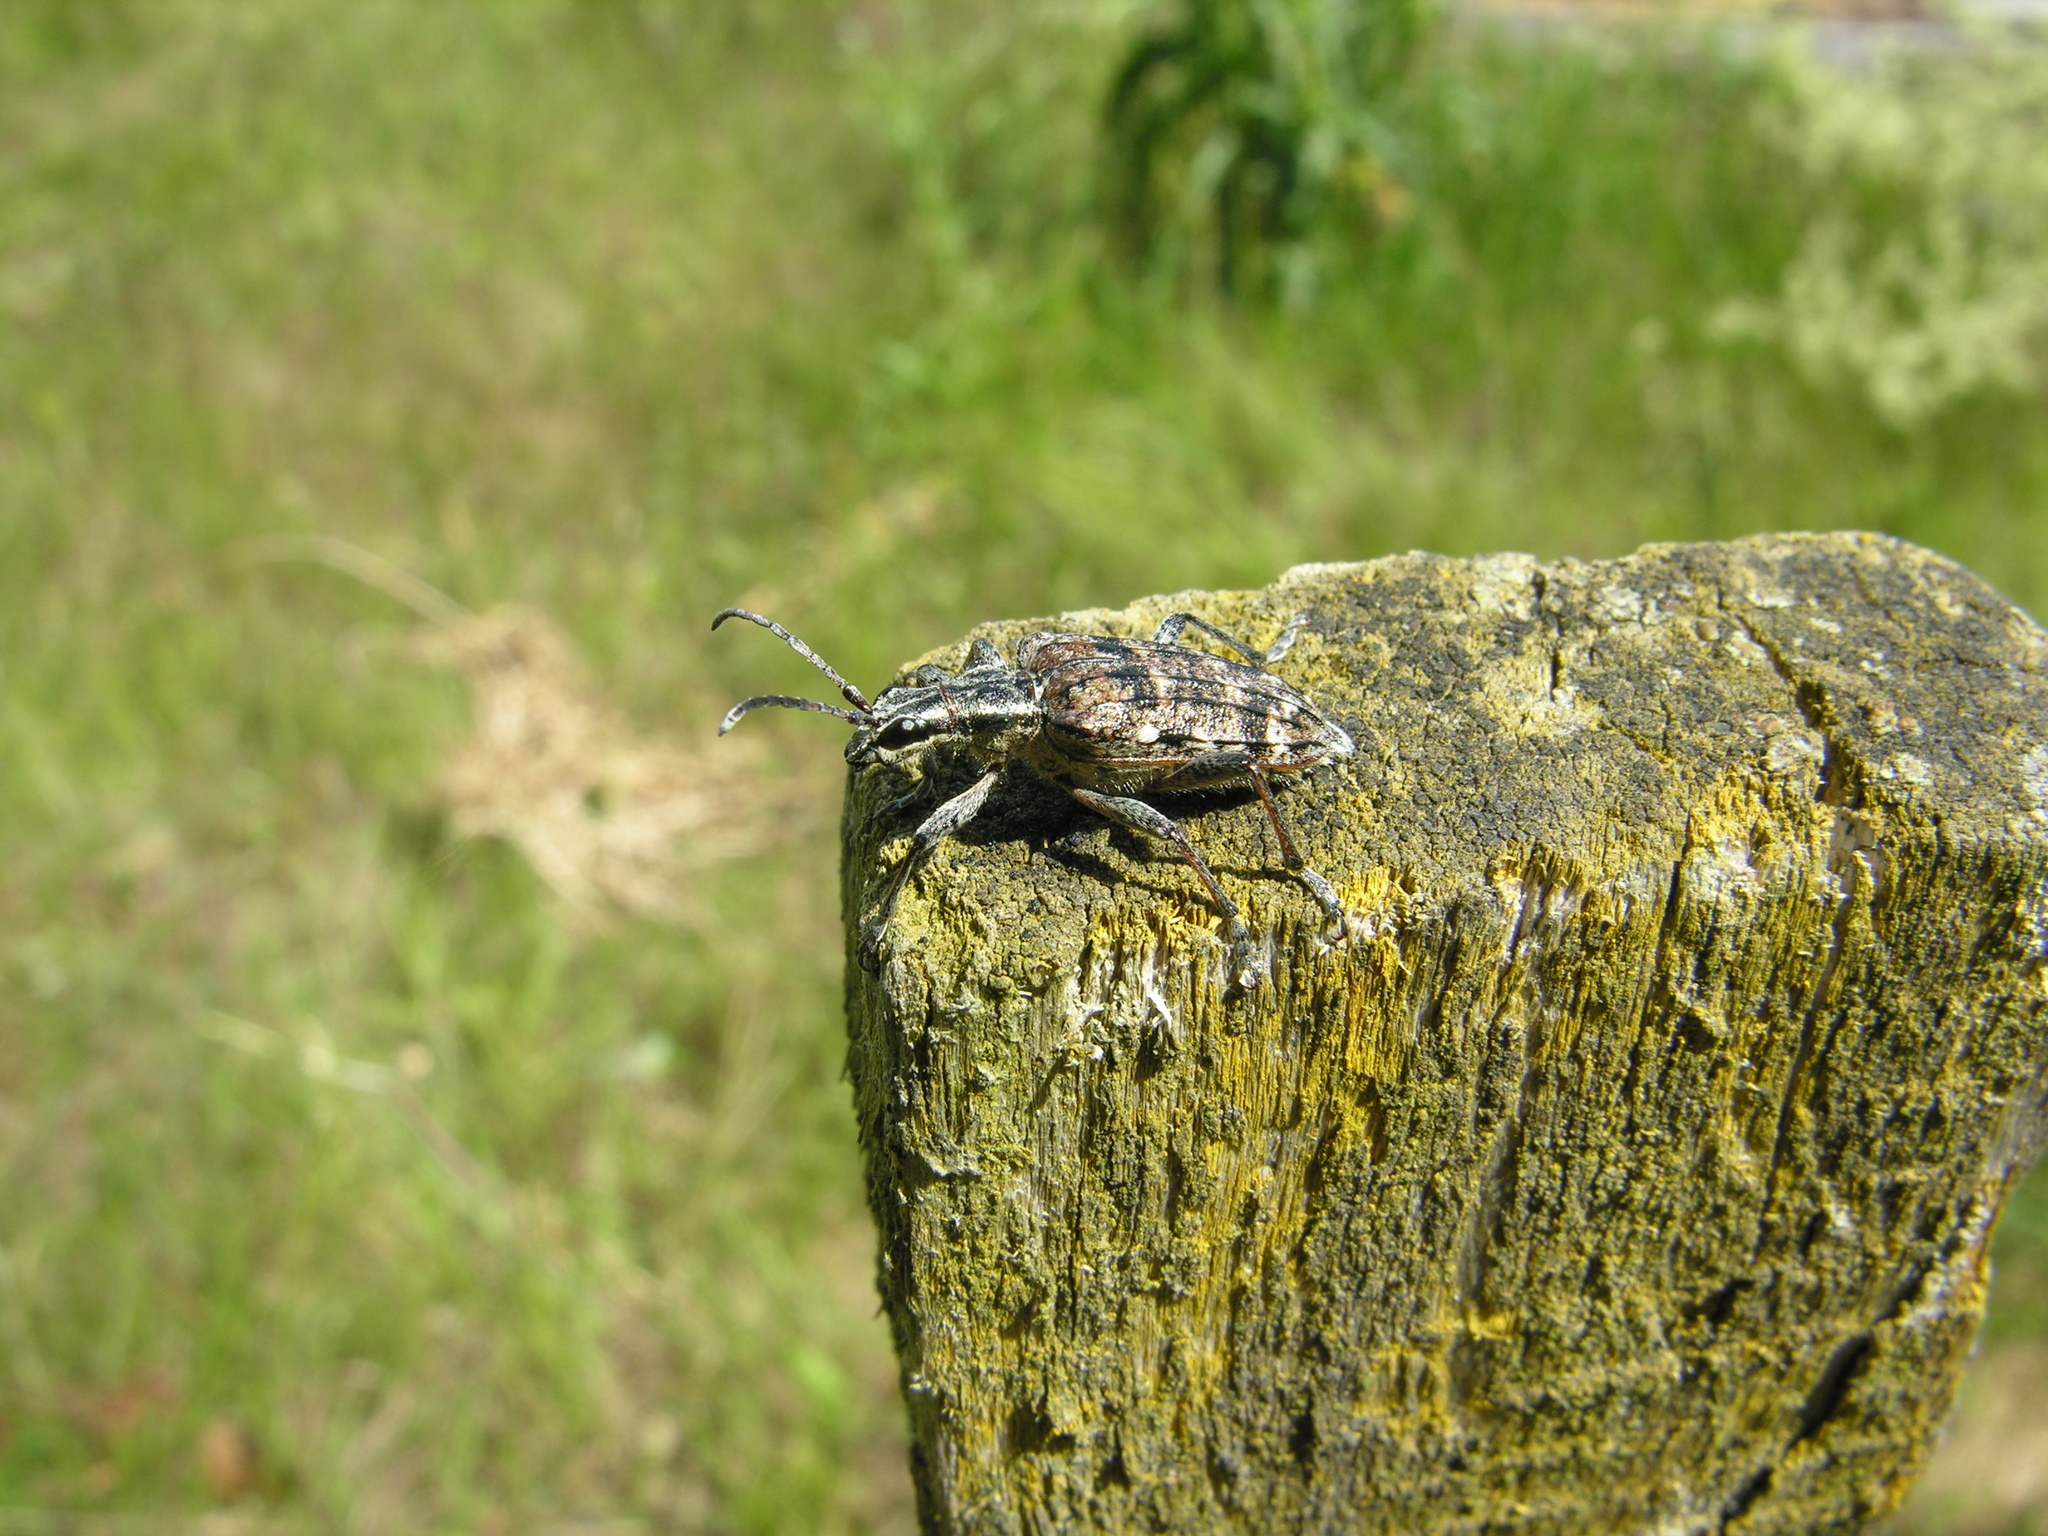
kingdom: Animalia
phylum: Arthropoda
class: Insecta
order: Coleoptera
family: Cerambycidae
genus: Rhagium
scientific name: Rhagium inquisitor
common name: Ribbed pine borer
